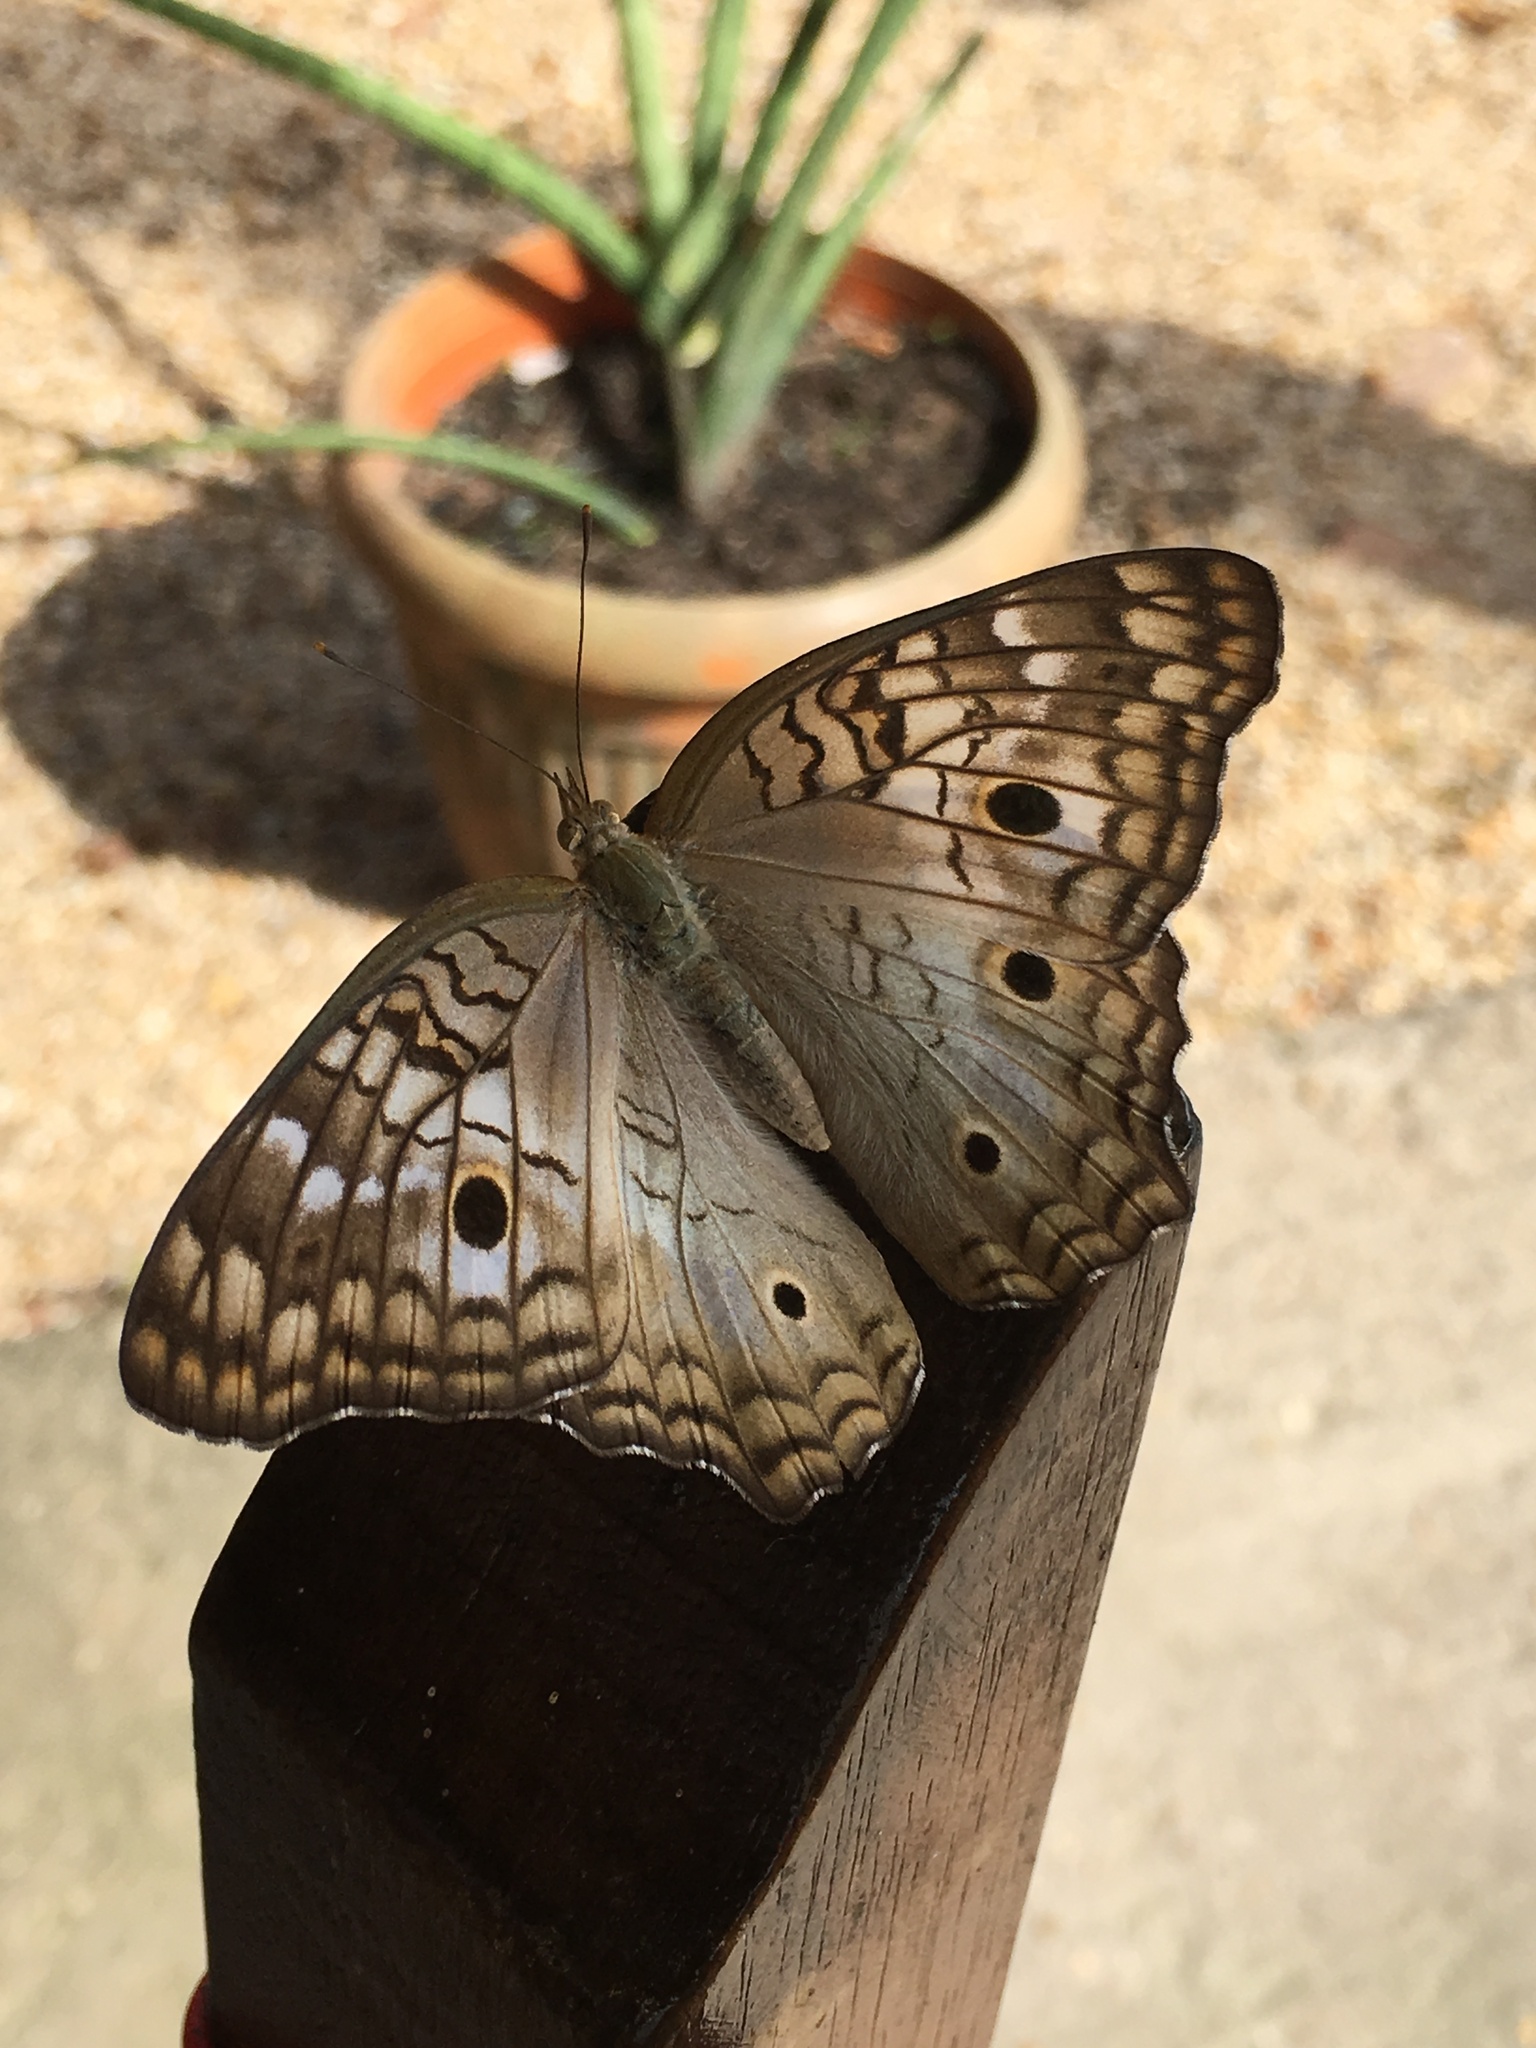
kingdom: Animalia
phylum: Arthropoda
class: Insecta
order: Lepidoptera
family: Nymphalidae
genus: Anartia
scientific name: Anartia jatrophae
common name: White peacock
